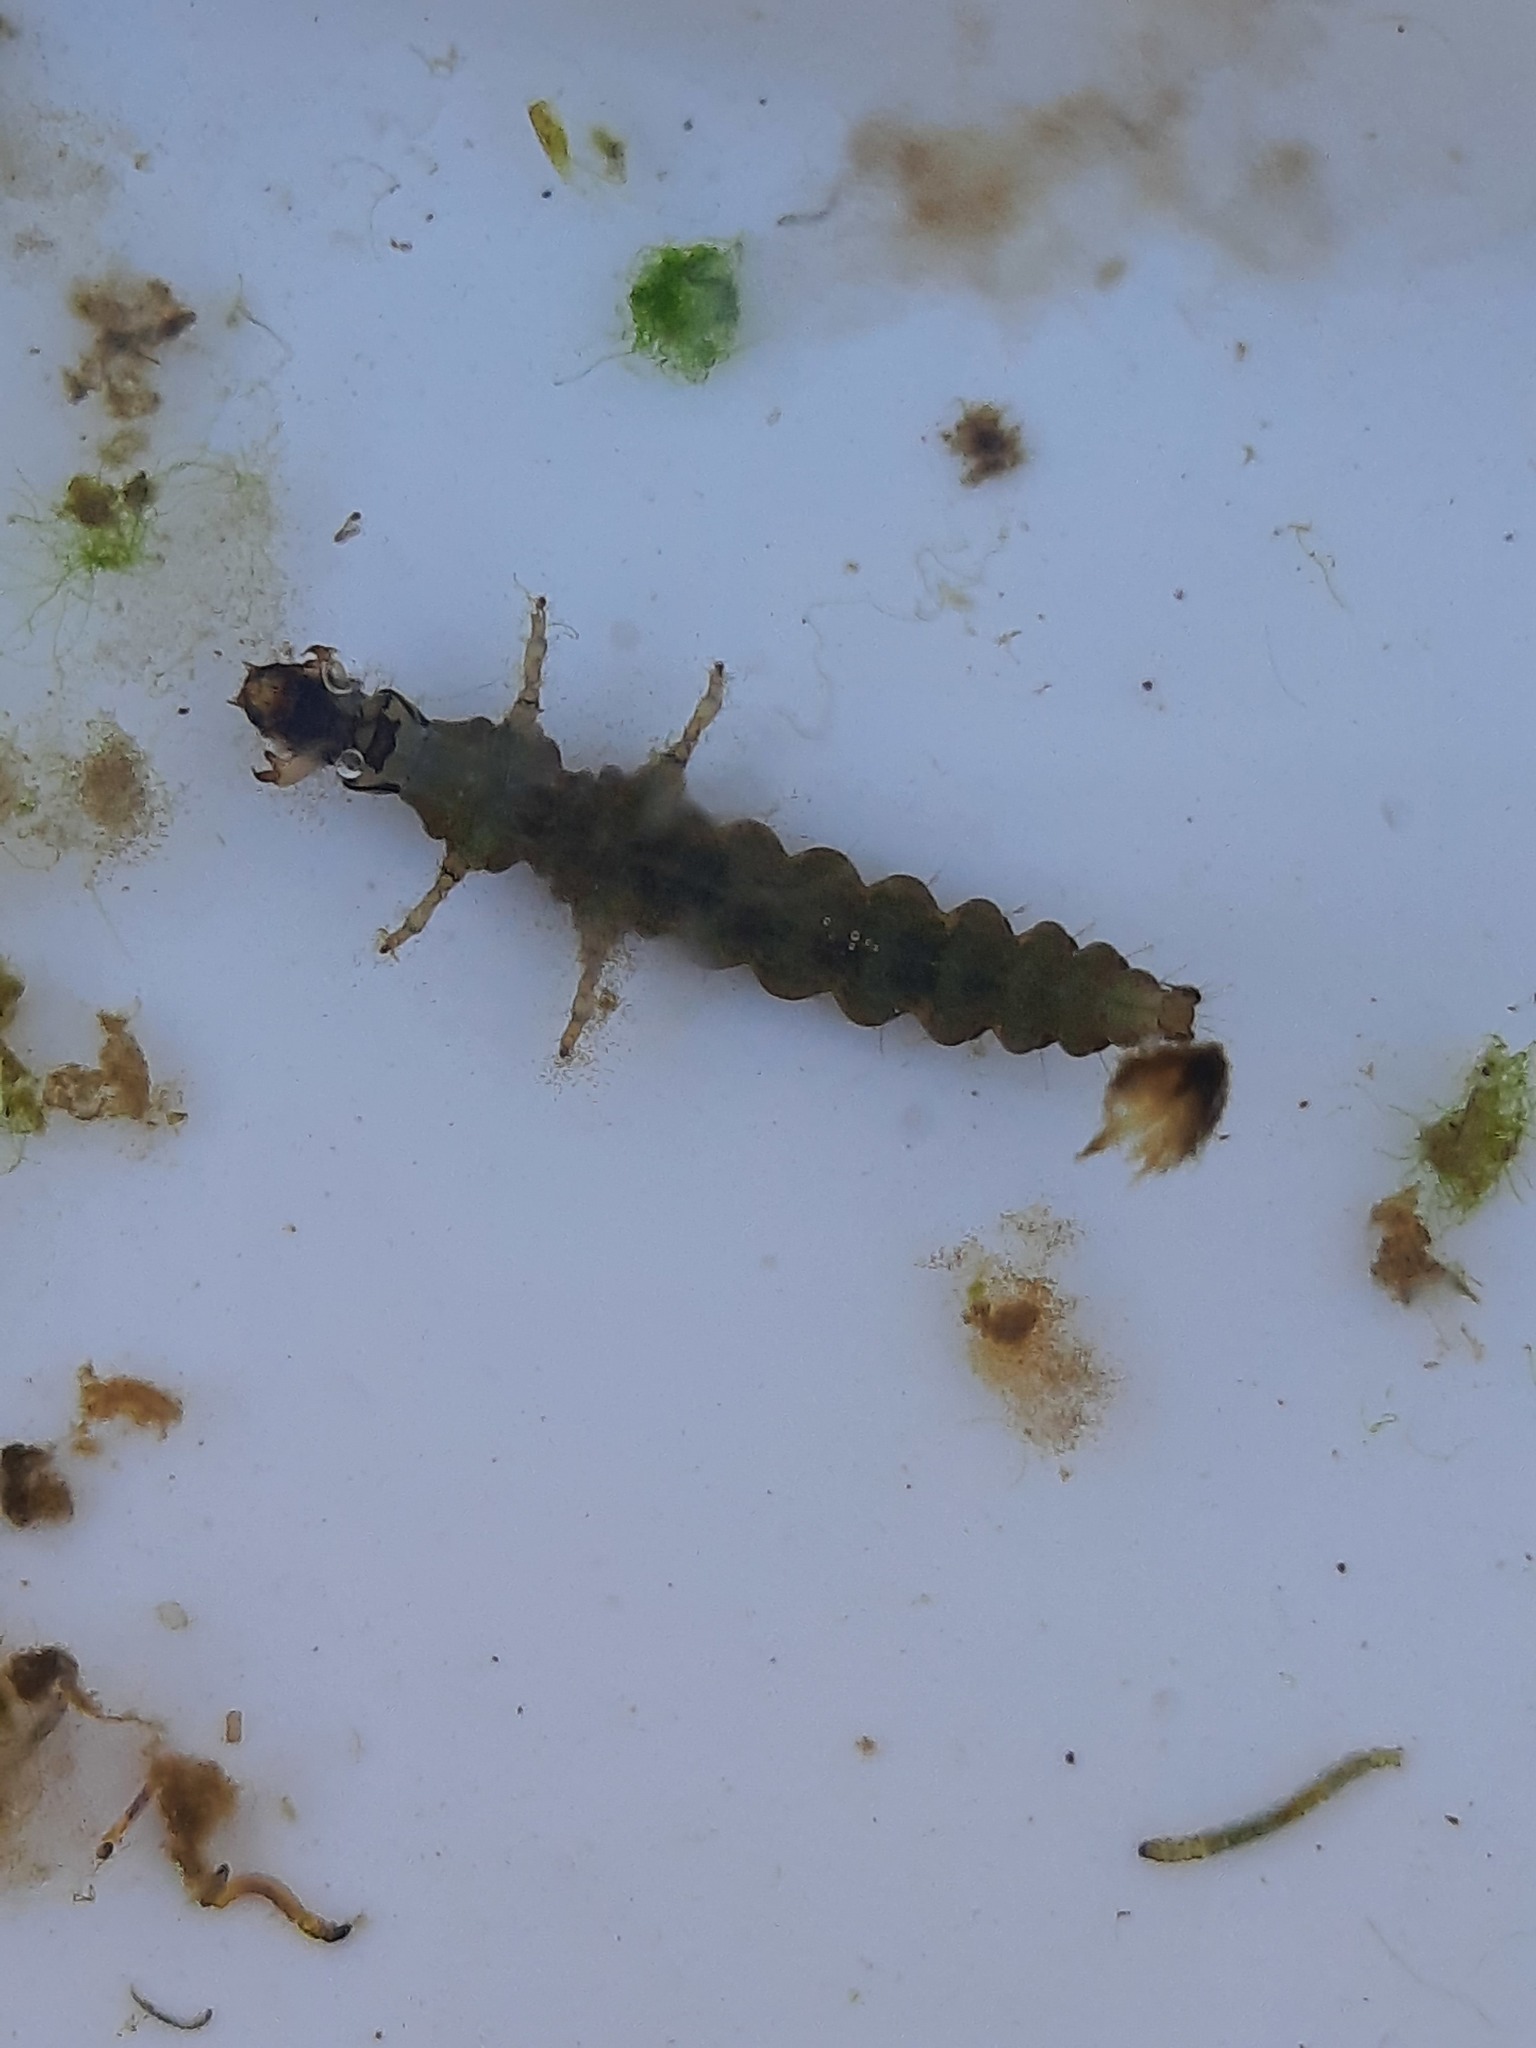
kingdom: Animalia
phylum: Arthropoda
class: Insecta
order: Trichoptera
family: Hydrobiosidae
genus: Costachorema
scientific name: Costachorema xanthopterum
